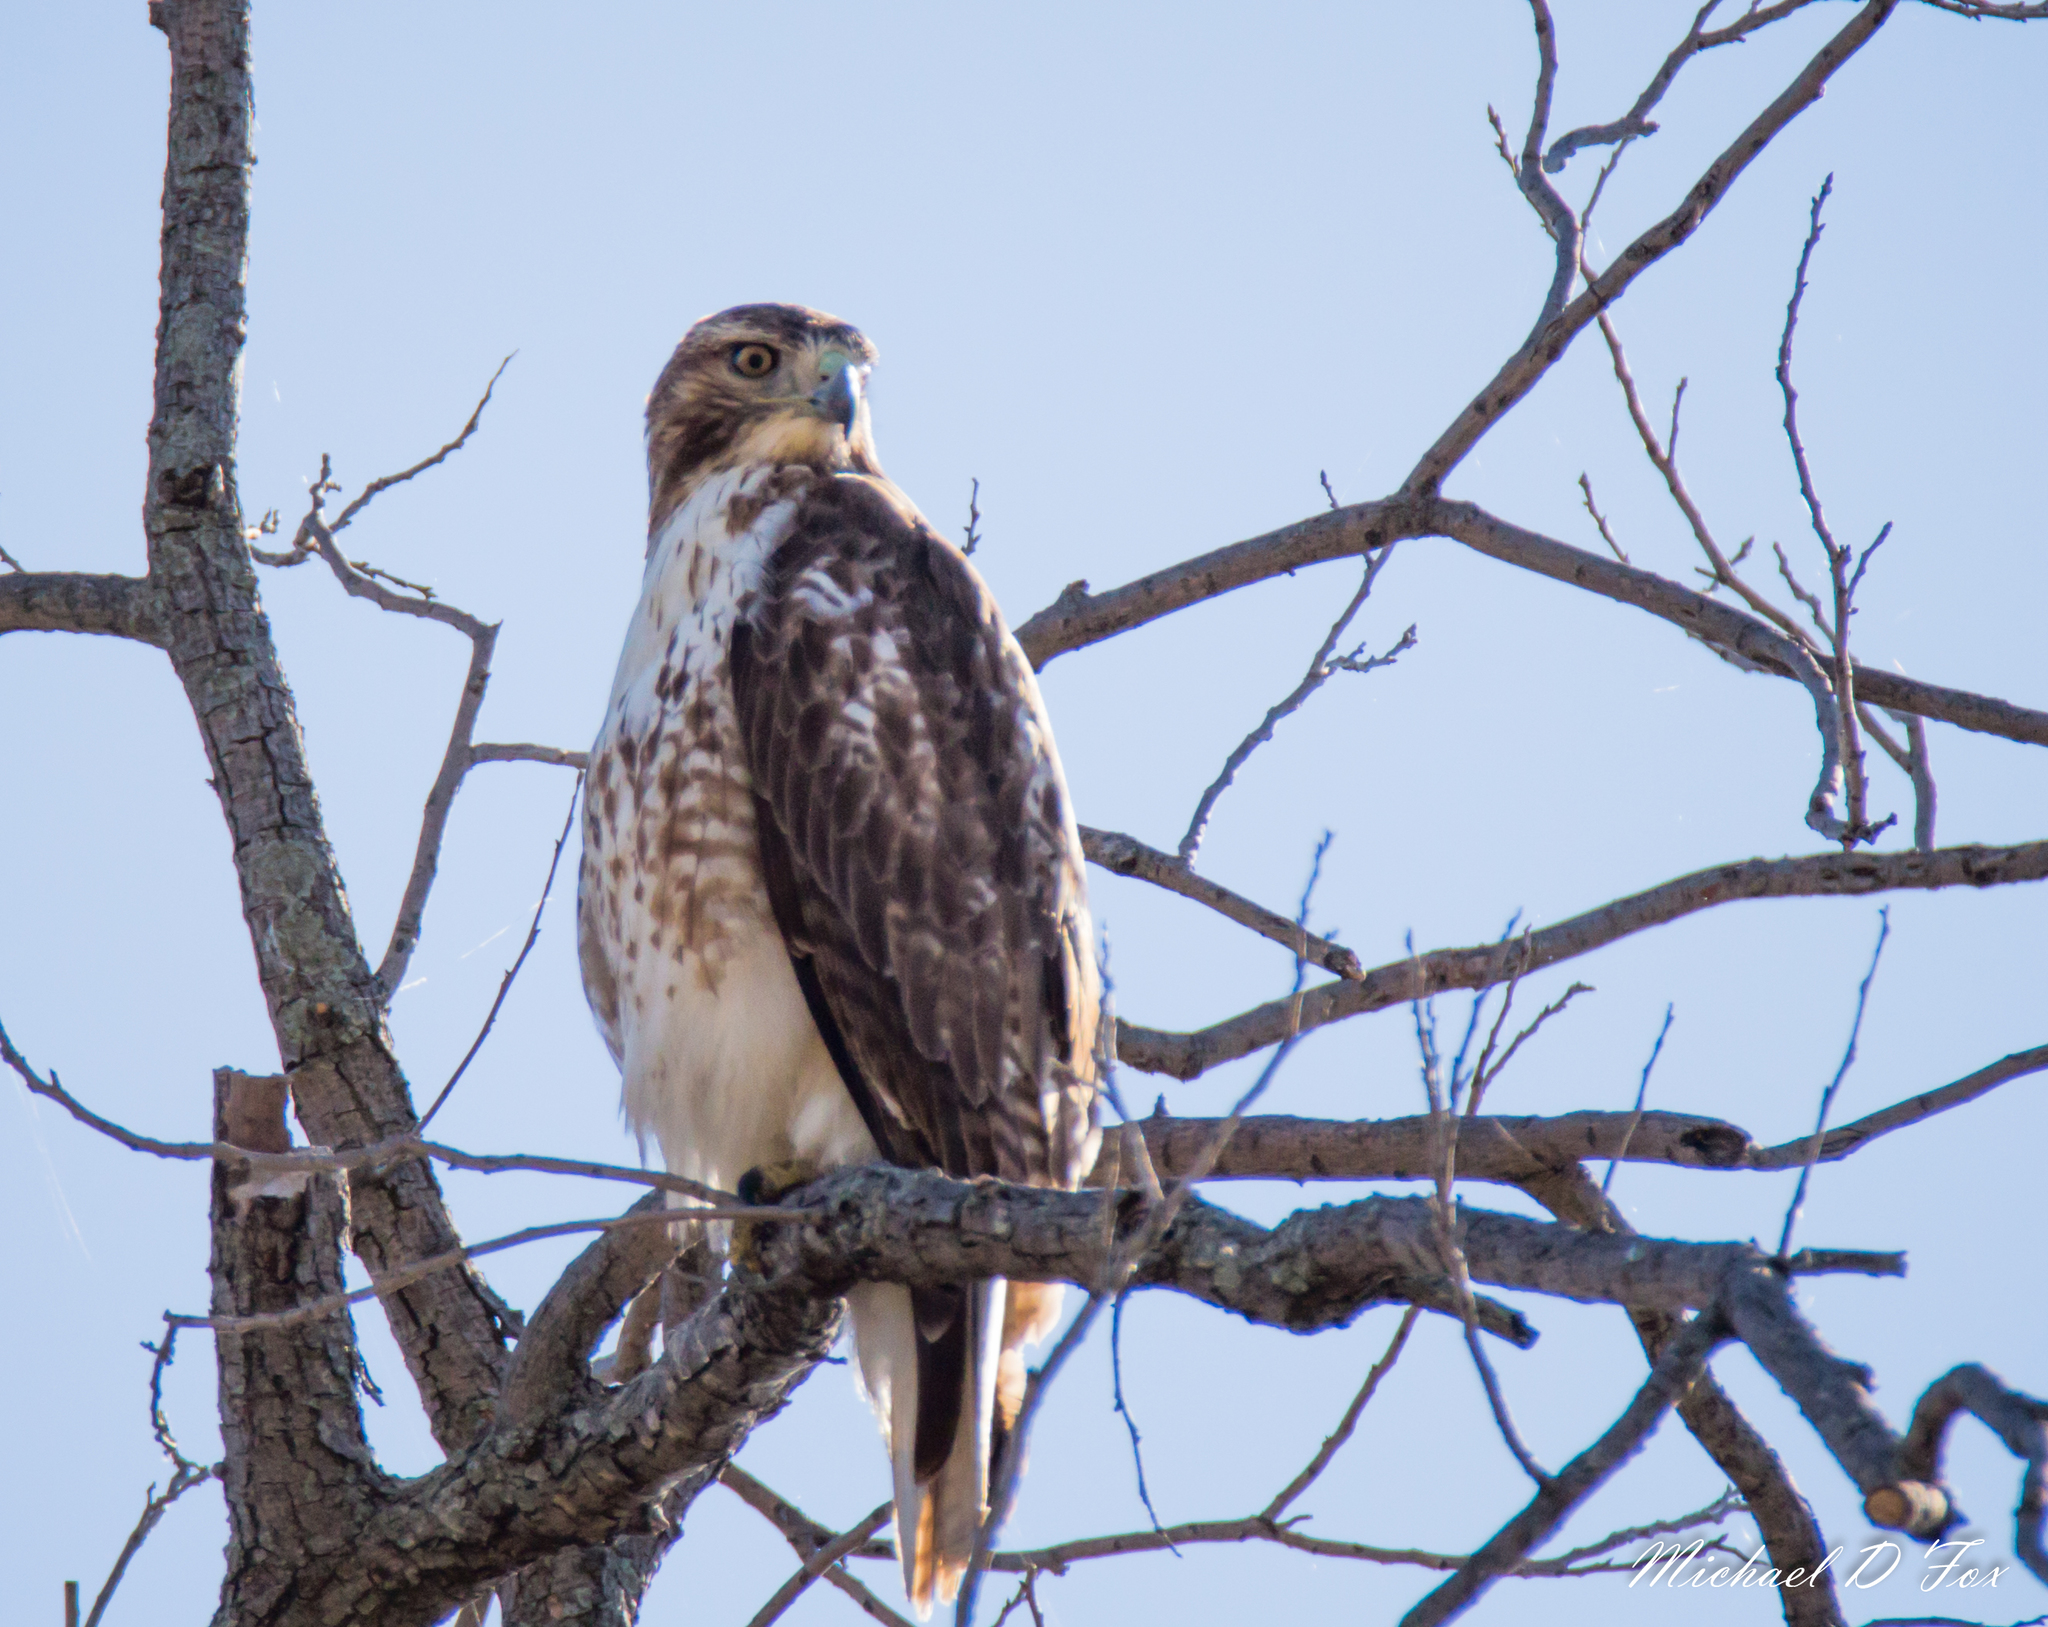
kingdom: Animalia
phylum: Chordata
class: Aves
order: Accipitriformes
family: Accipitridae
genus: Buteo
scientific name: Buteo jamaicensis
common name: Red-tailed hawk
